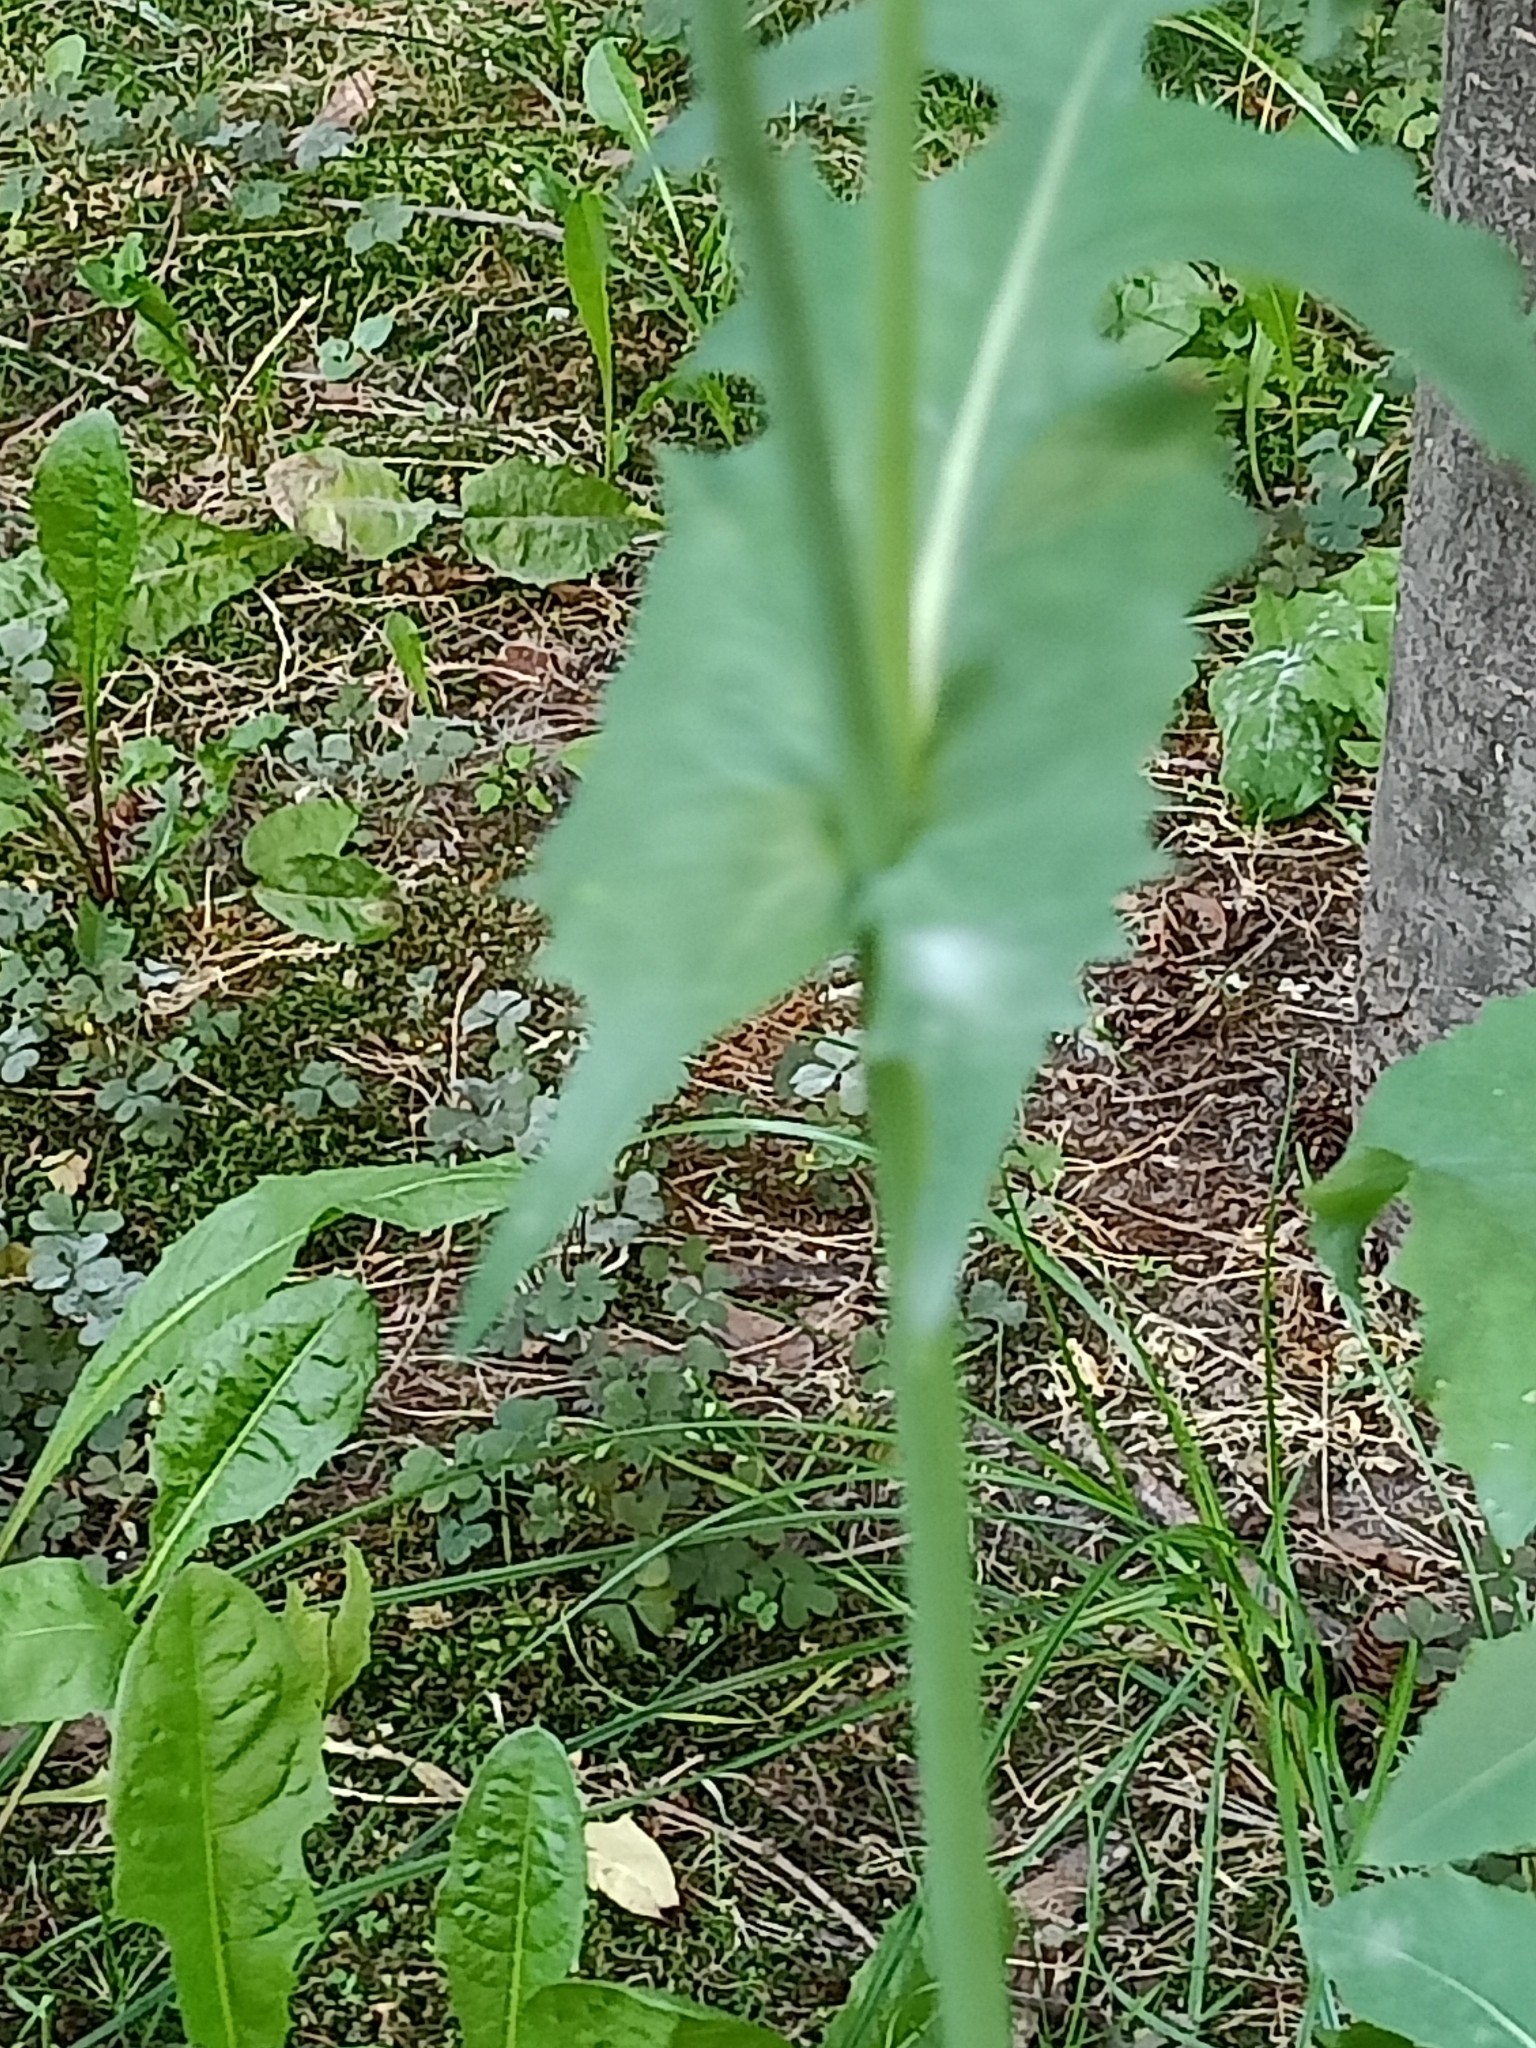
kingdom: Plantae
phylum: Tracheophyta
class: Magnoliopsida
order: Asterales
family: Asteraceae
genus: Sonchus
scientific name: Sonchus oleraceus
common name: Common sowthistle
